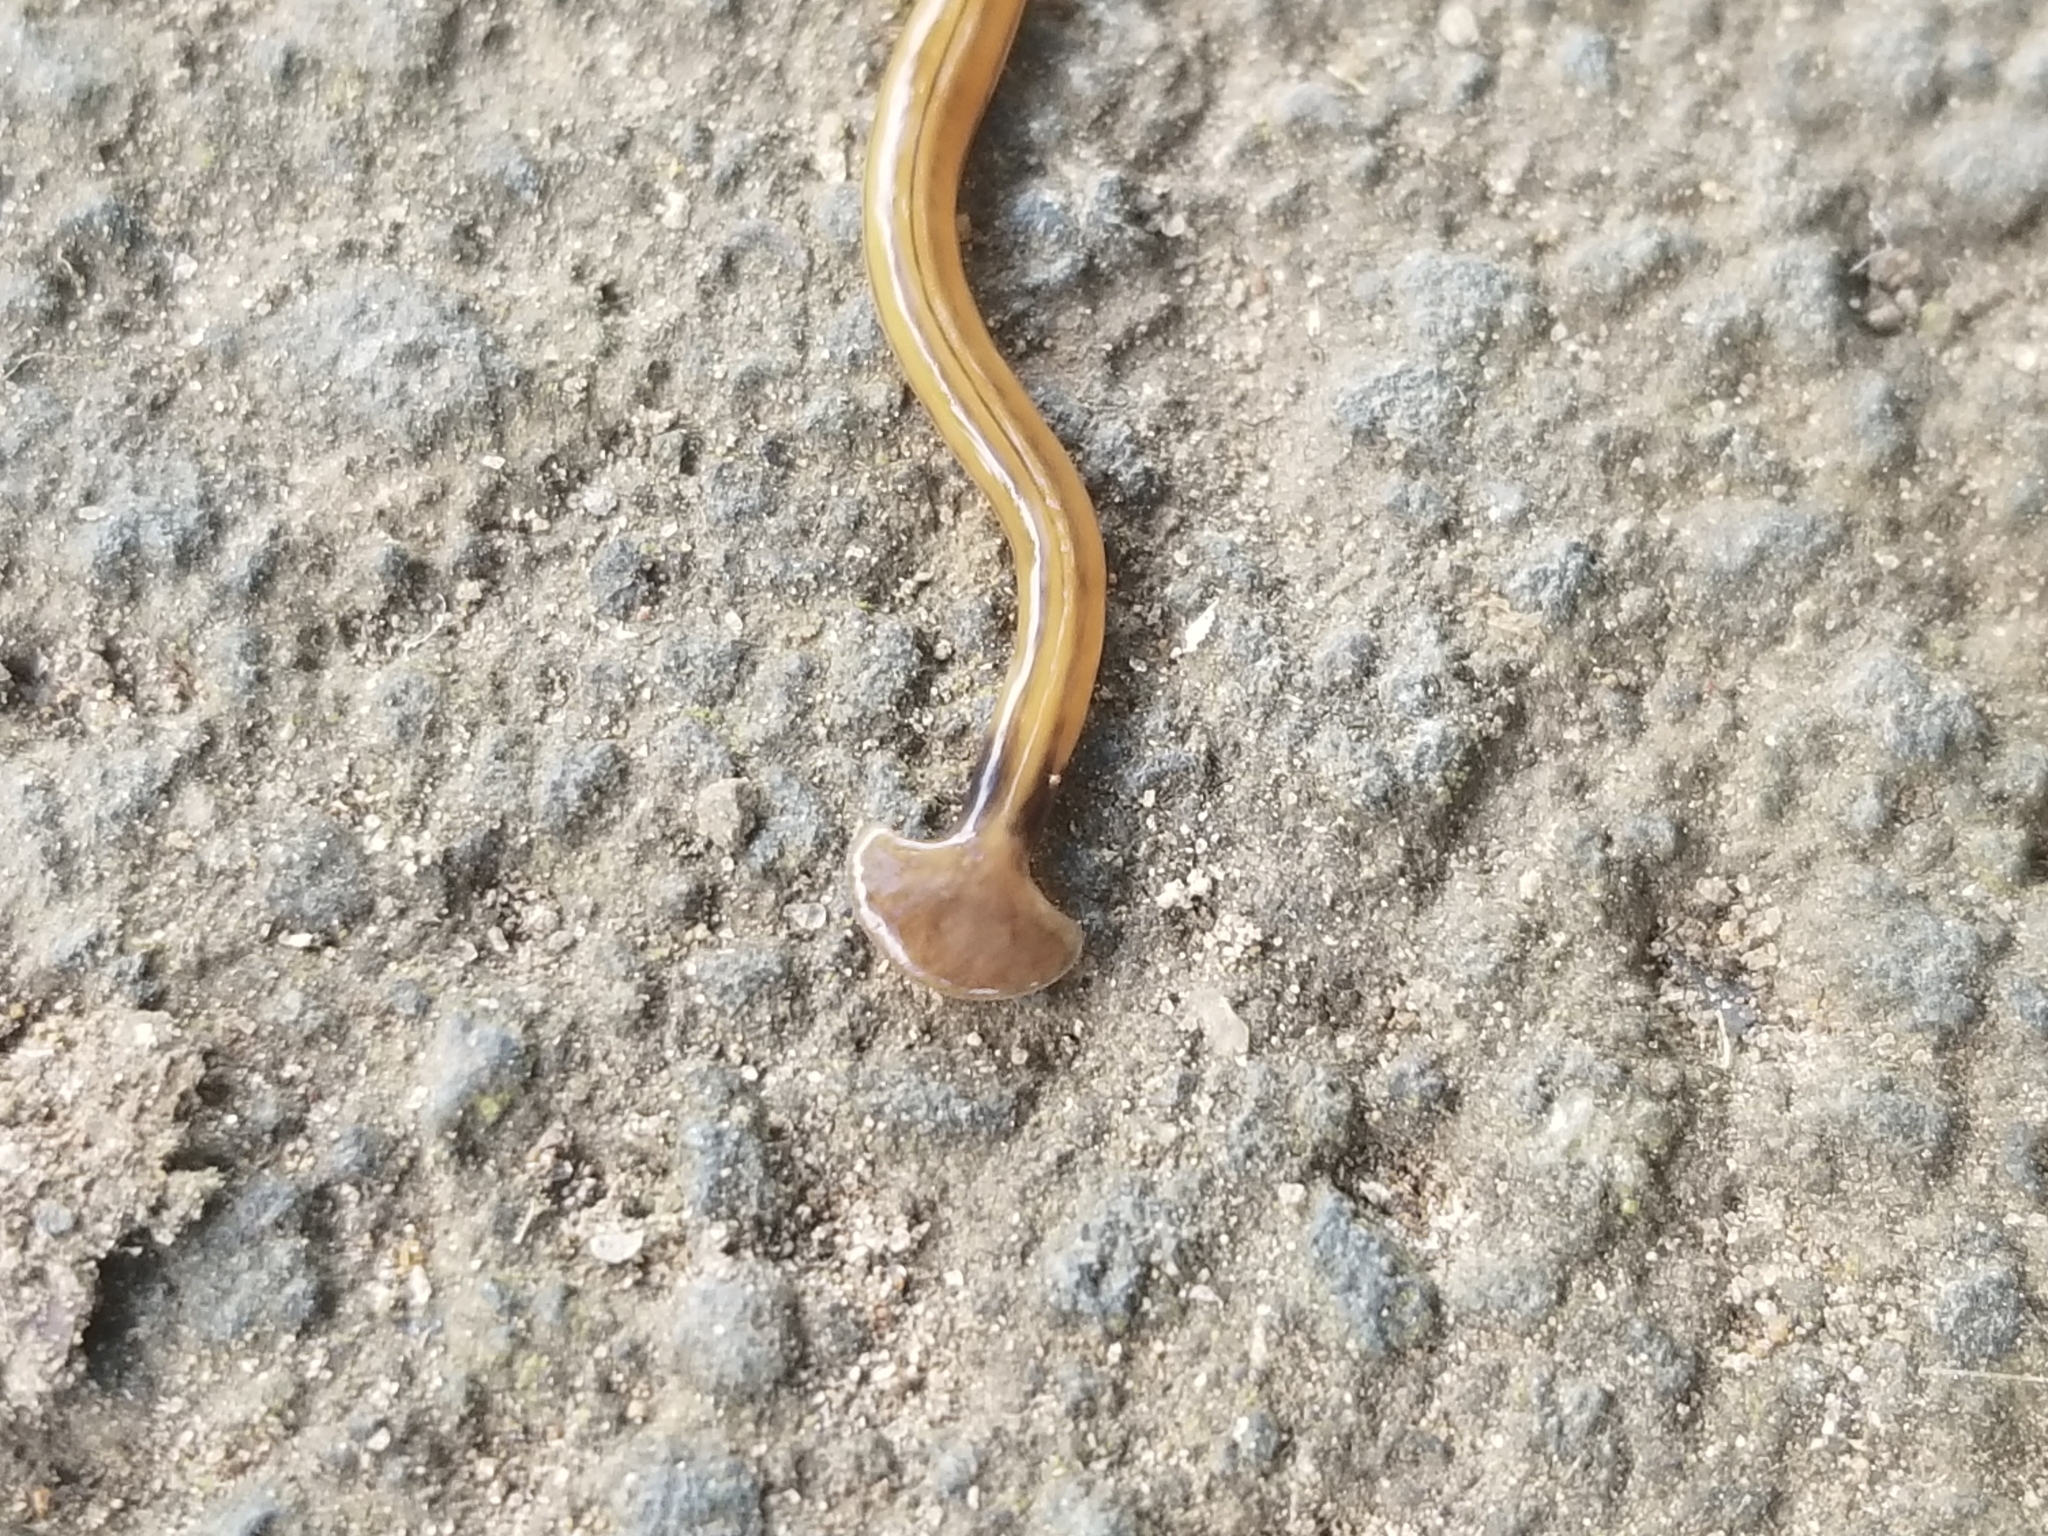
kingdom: Animalia
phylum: Platyhelminthes
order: Tricladida
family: Geoplanidae
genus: Bipalium
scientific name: Bipalium kewense
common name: Hammerhead flatworm
